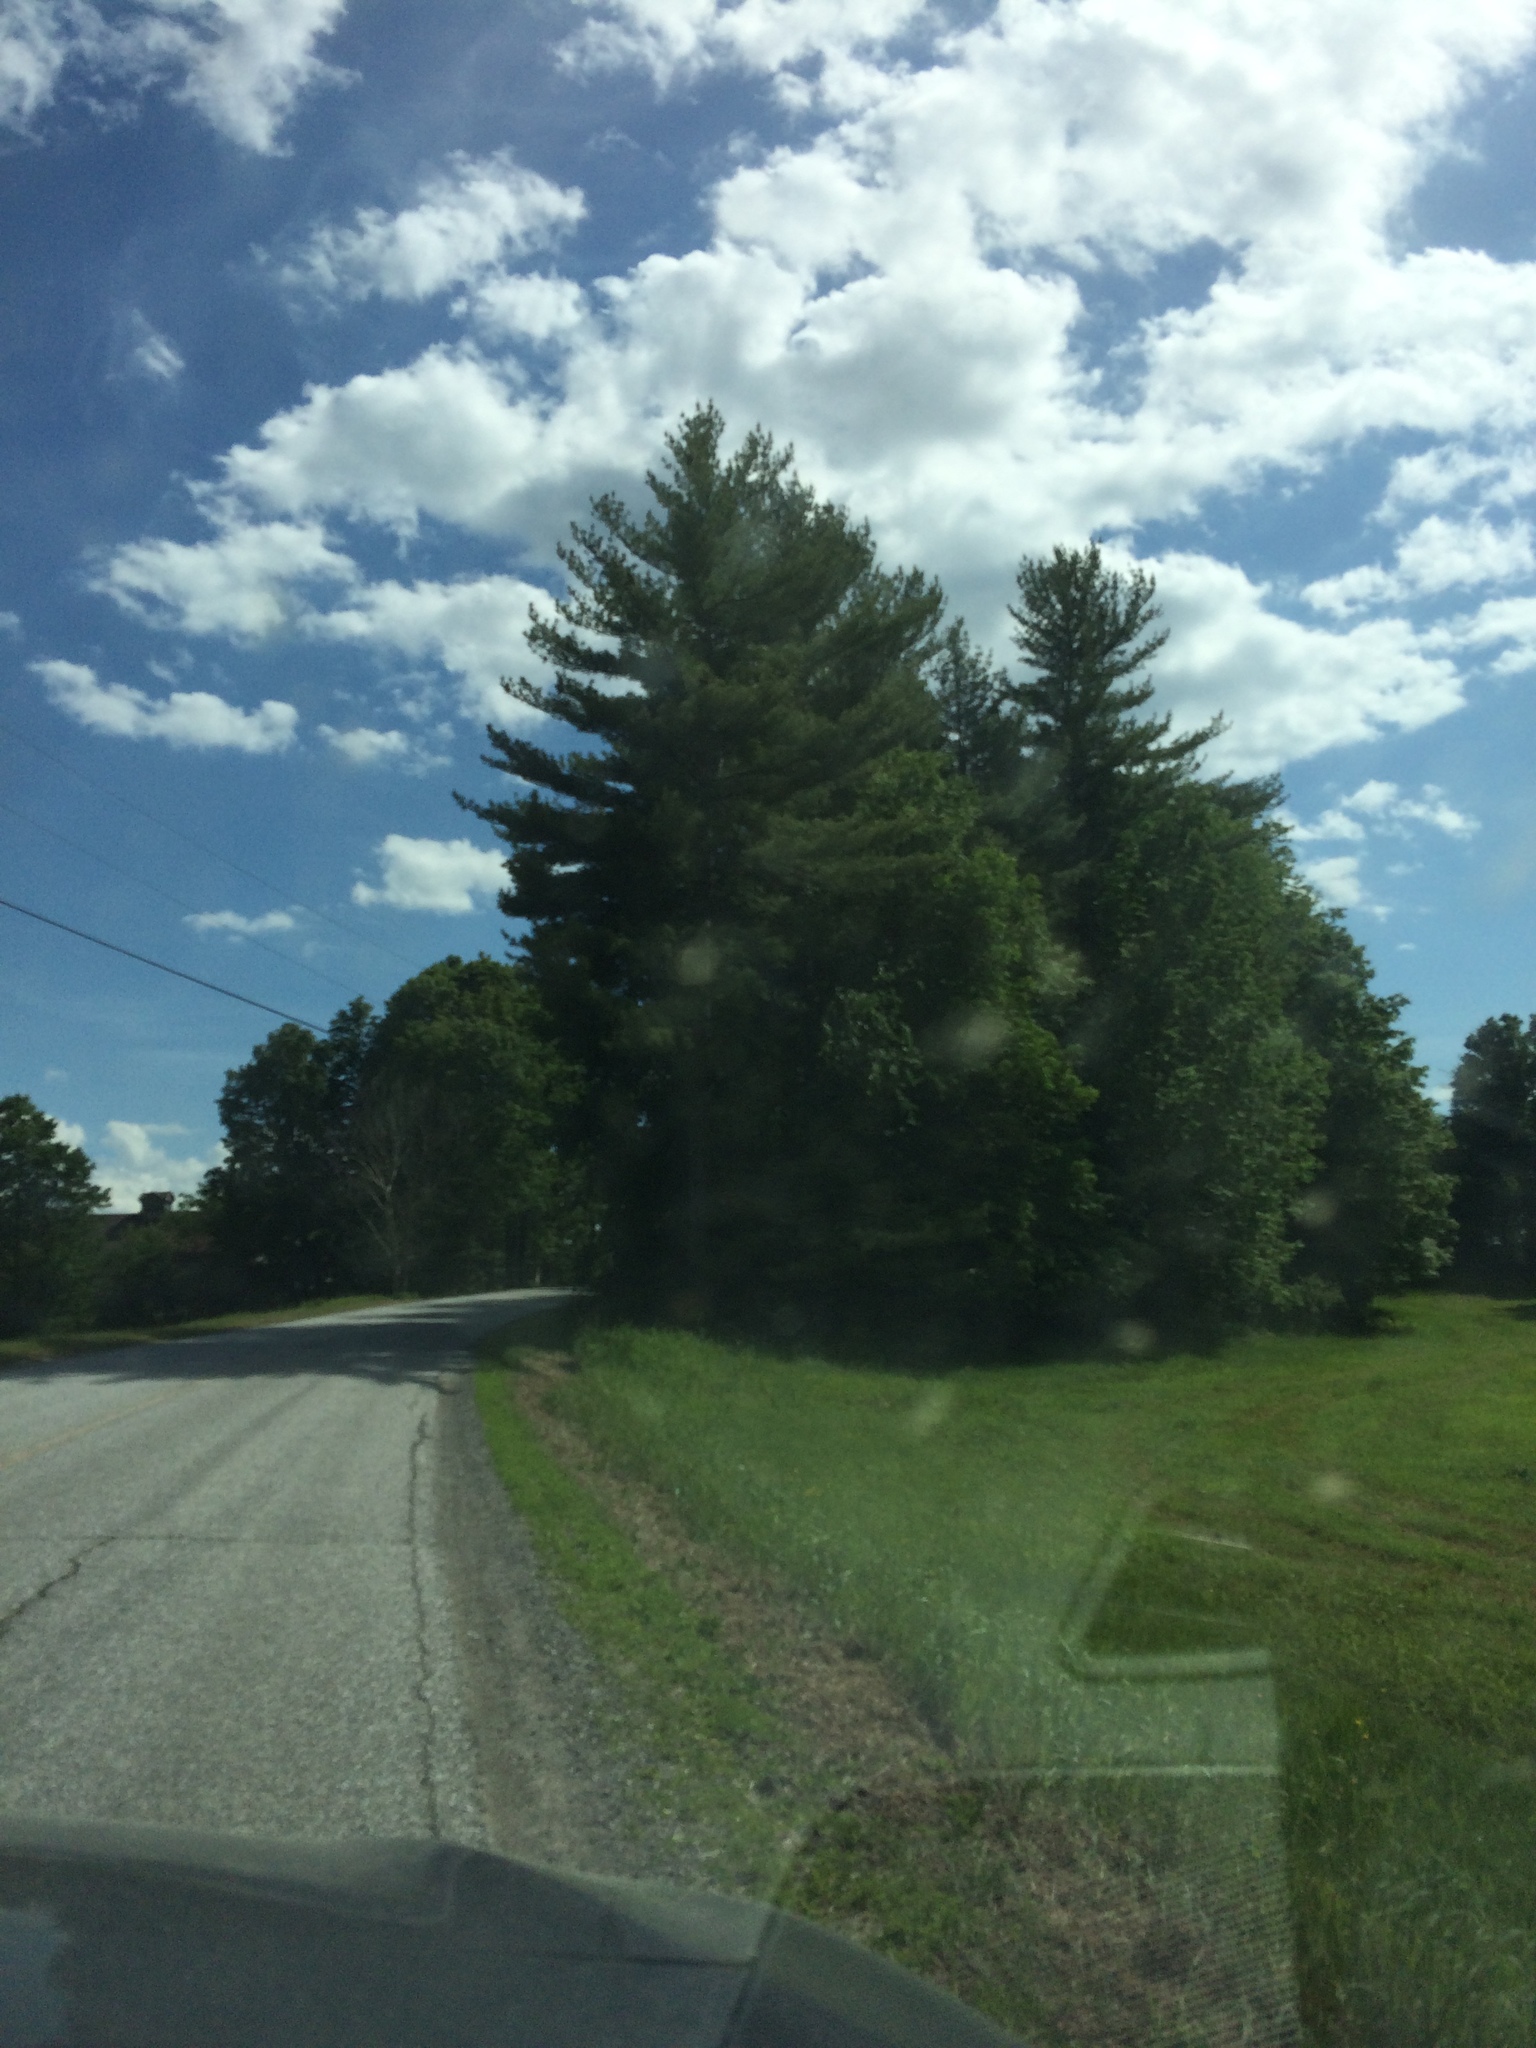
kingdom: Plantae
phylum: Tracheophyta
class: Pinopsida
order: Pinales
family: Pinaceae
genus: Pinus
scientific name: Pinus strobus
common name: Weymouth pine
